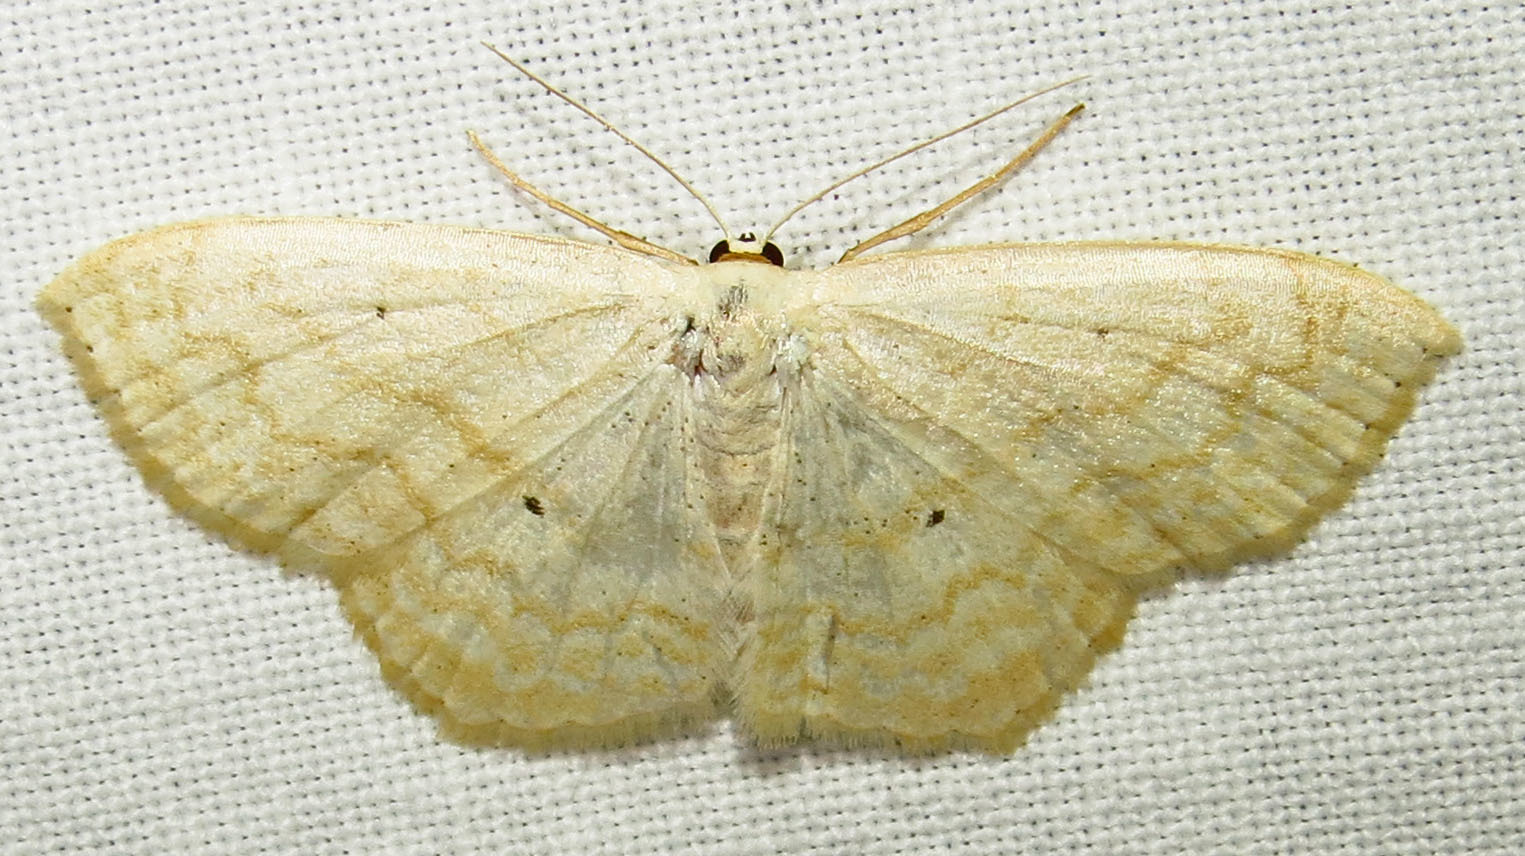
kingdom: Animalia
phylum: Arthropoda
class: Insecta
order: Lepidoptera
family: Geometridae
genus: Scopula
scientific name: Scopula limboundata
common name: Large lace border
